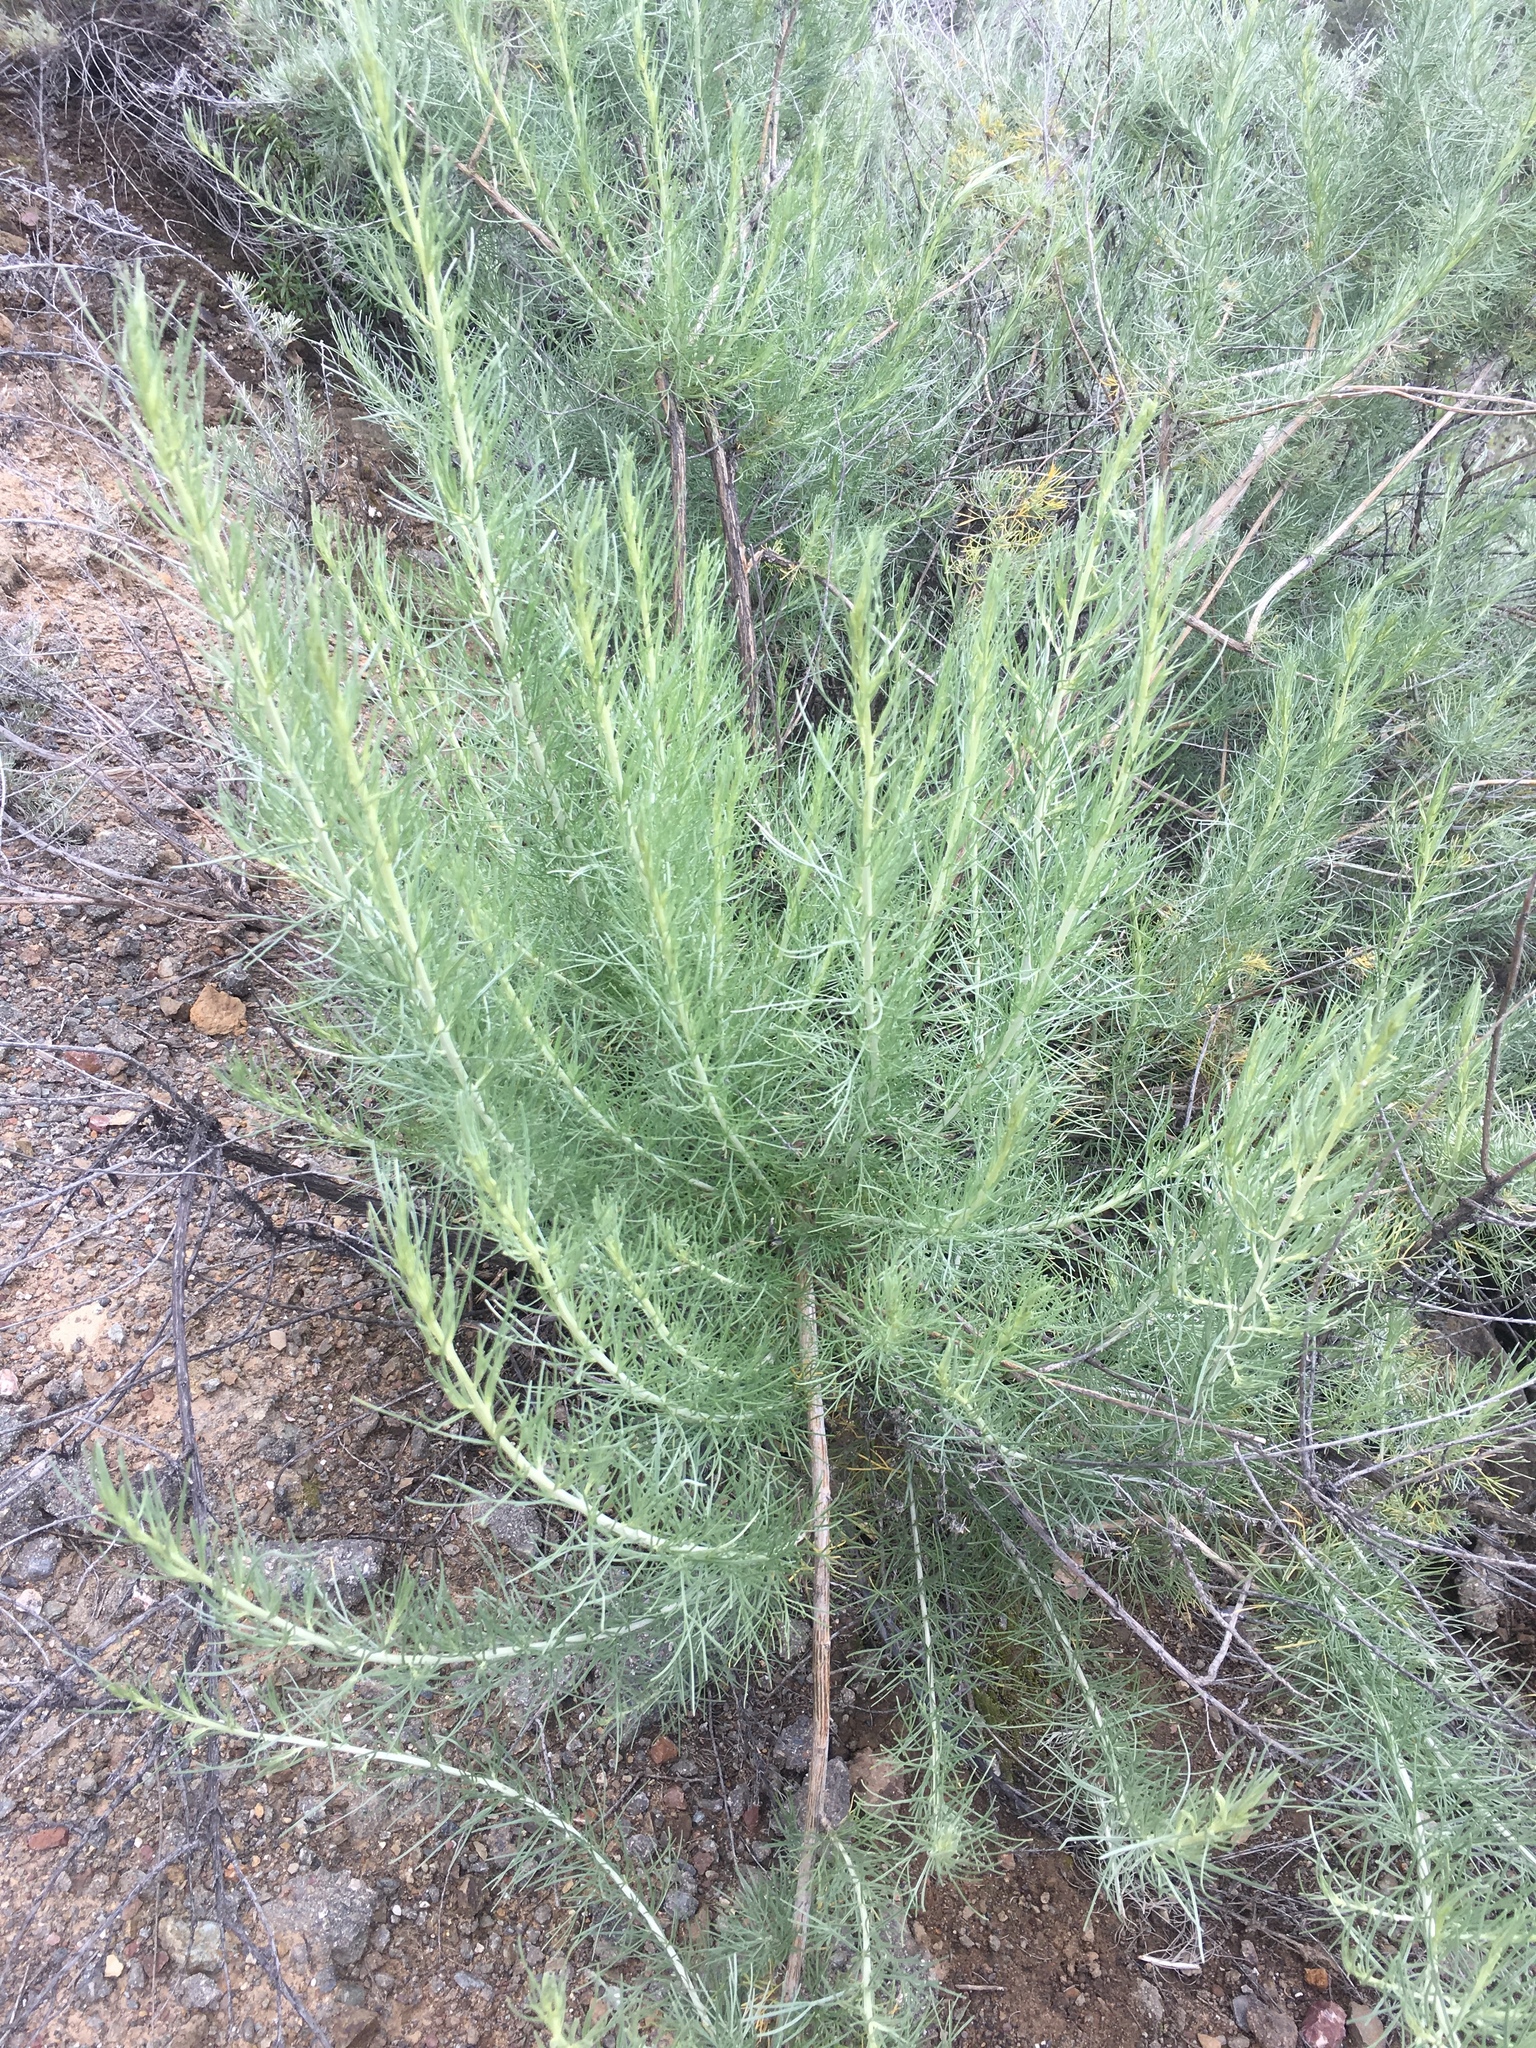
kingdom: Plantae
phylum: Tracheophyta
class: Magnoliopsida
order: Asterales
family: Asteraceae
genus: Artemisia
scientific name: Artemisia californica
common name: California sagebrush
